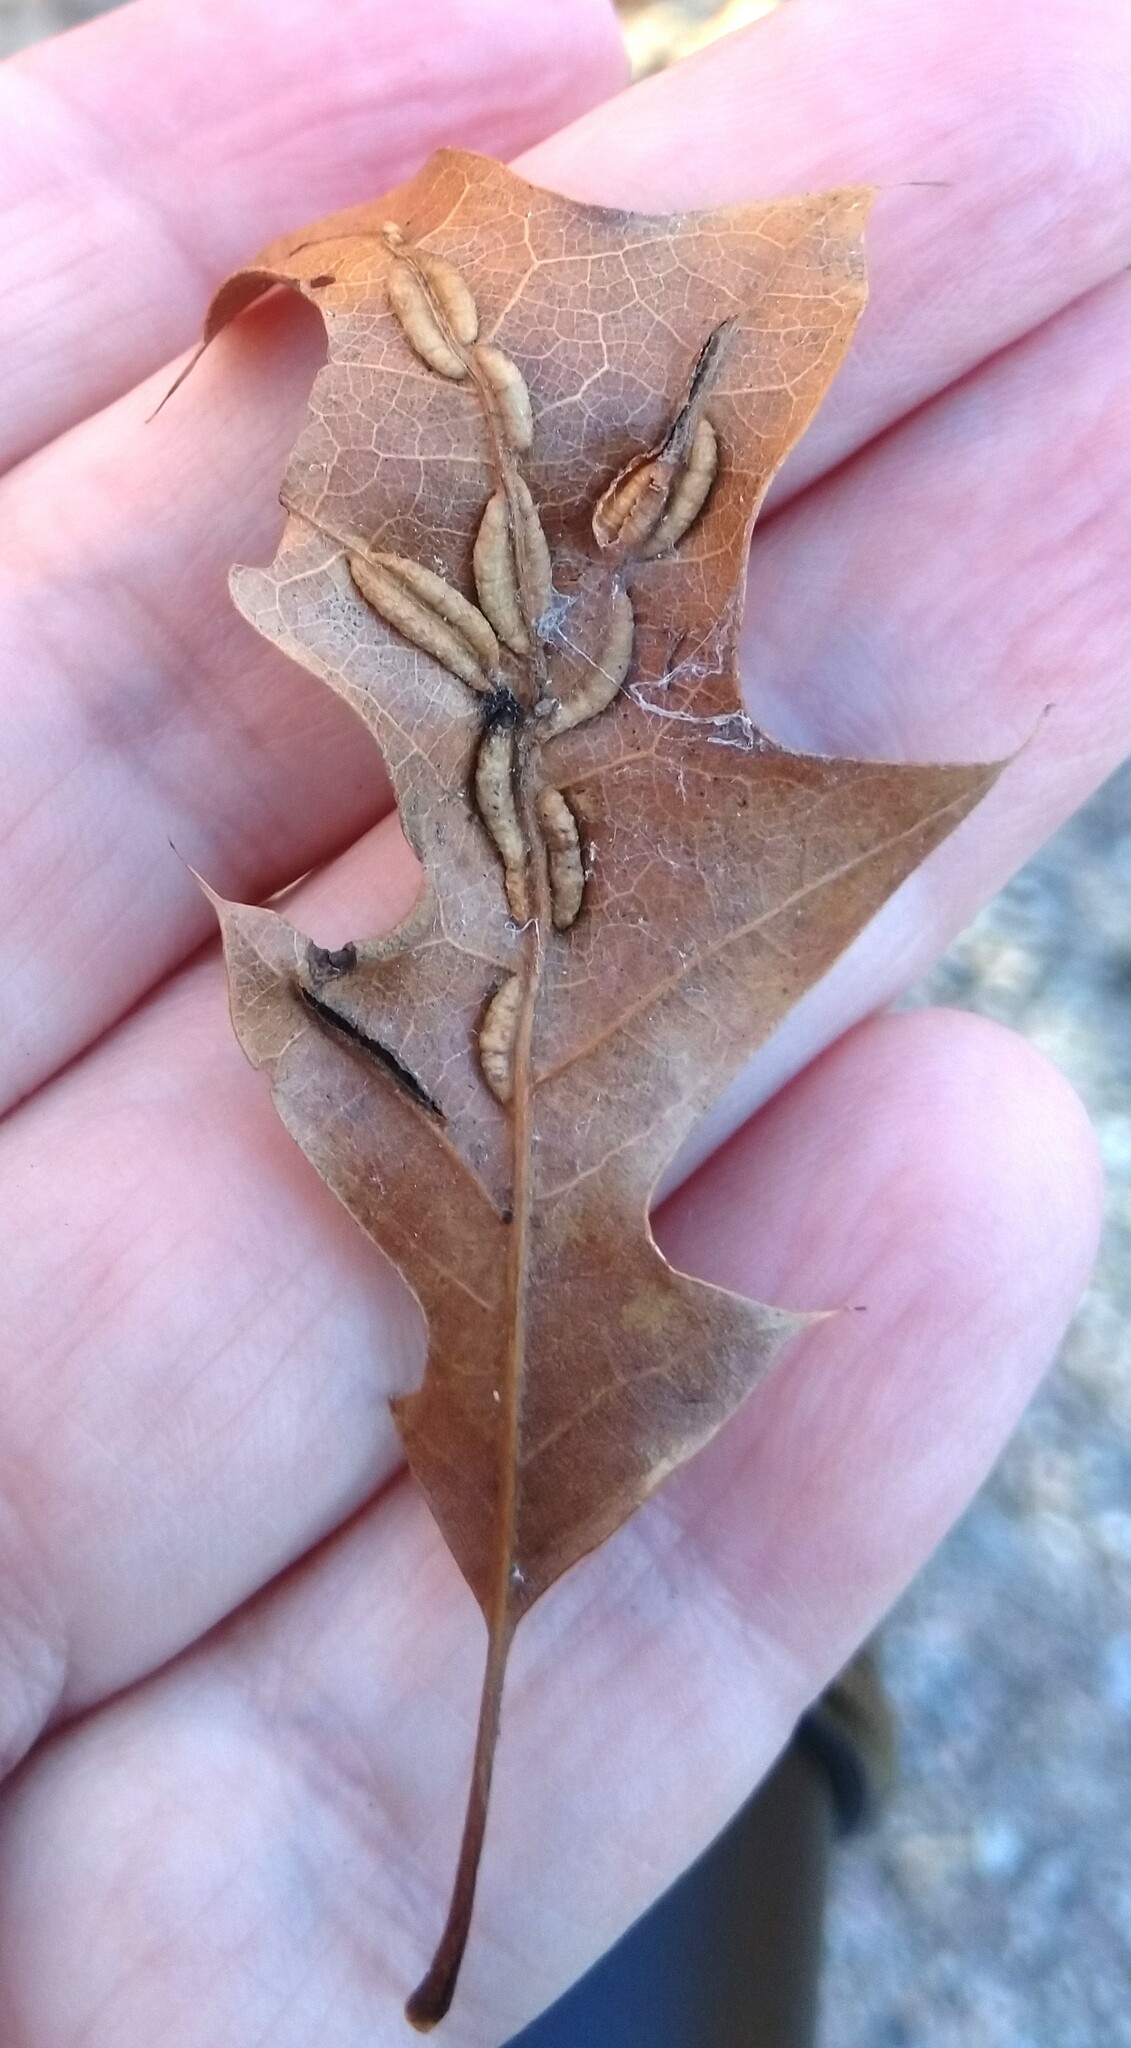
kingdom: Animalia
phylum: Arthropoda
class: Insecta
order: Diptera
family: Cecidomyiidae
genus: Macrodiplosis
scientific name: Macrodiplosis q-orucum
